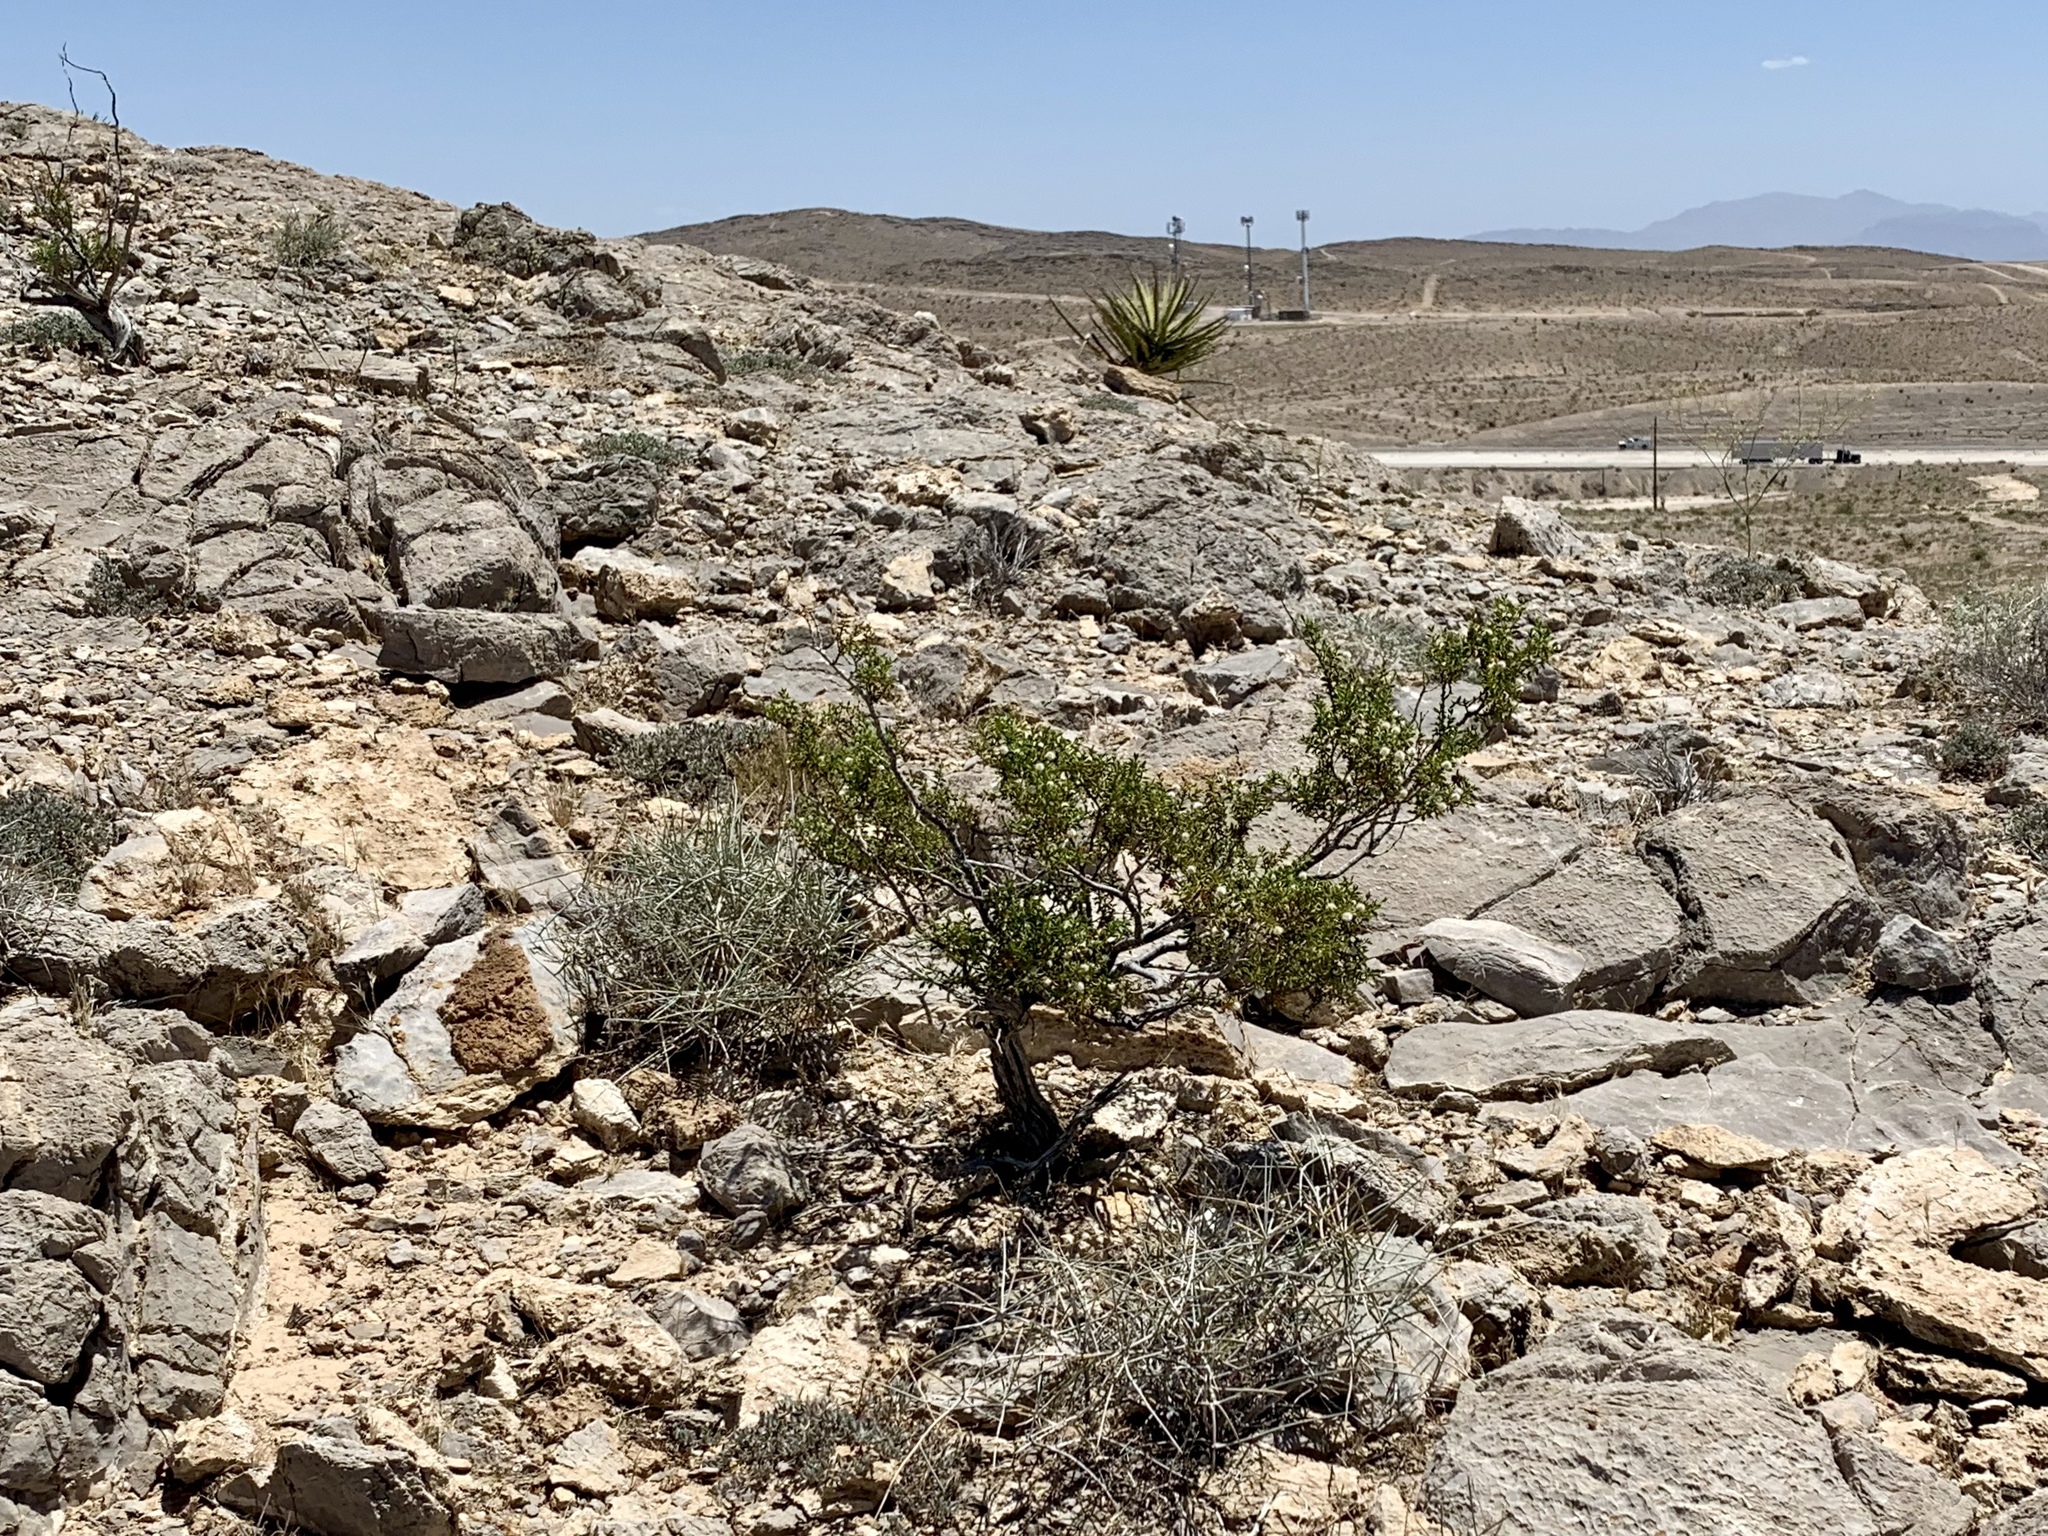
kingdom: Plantae
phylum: Tracheophyta
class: Magnoliopsida
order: Zygophyllales
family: Zygophyllaceae
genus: Larrea
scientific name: Larrea tridentata
